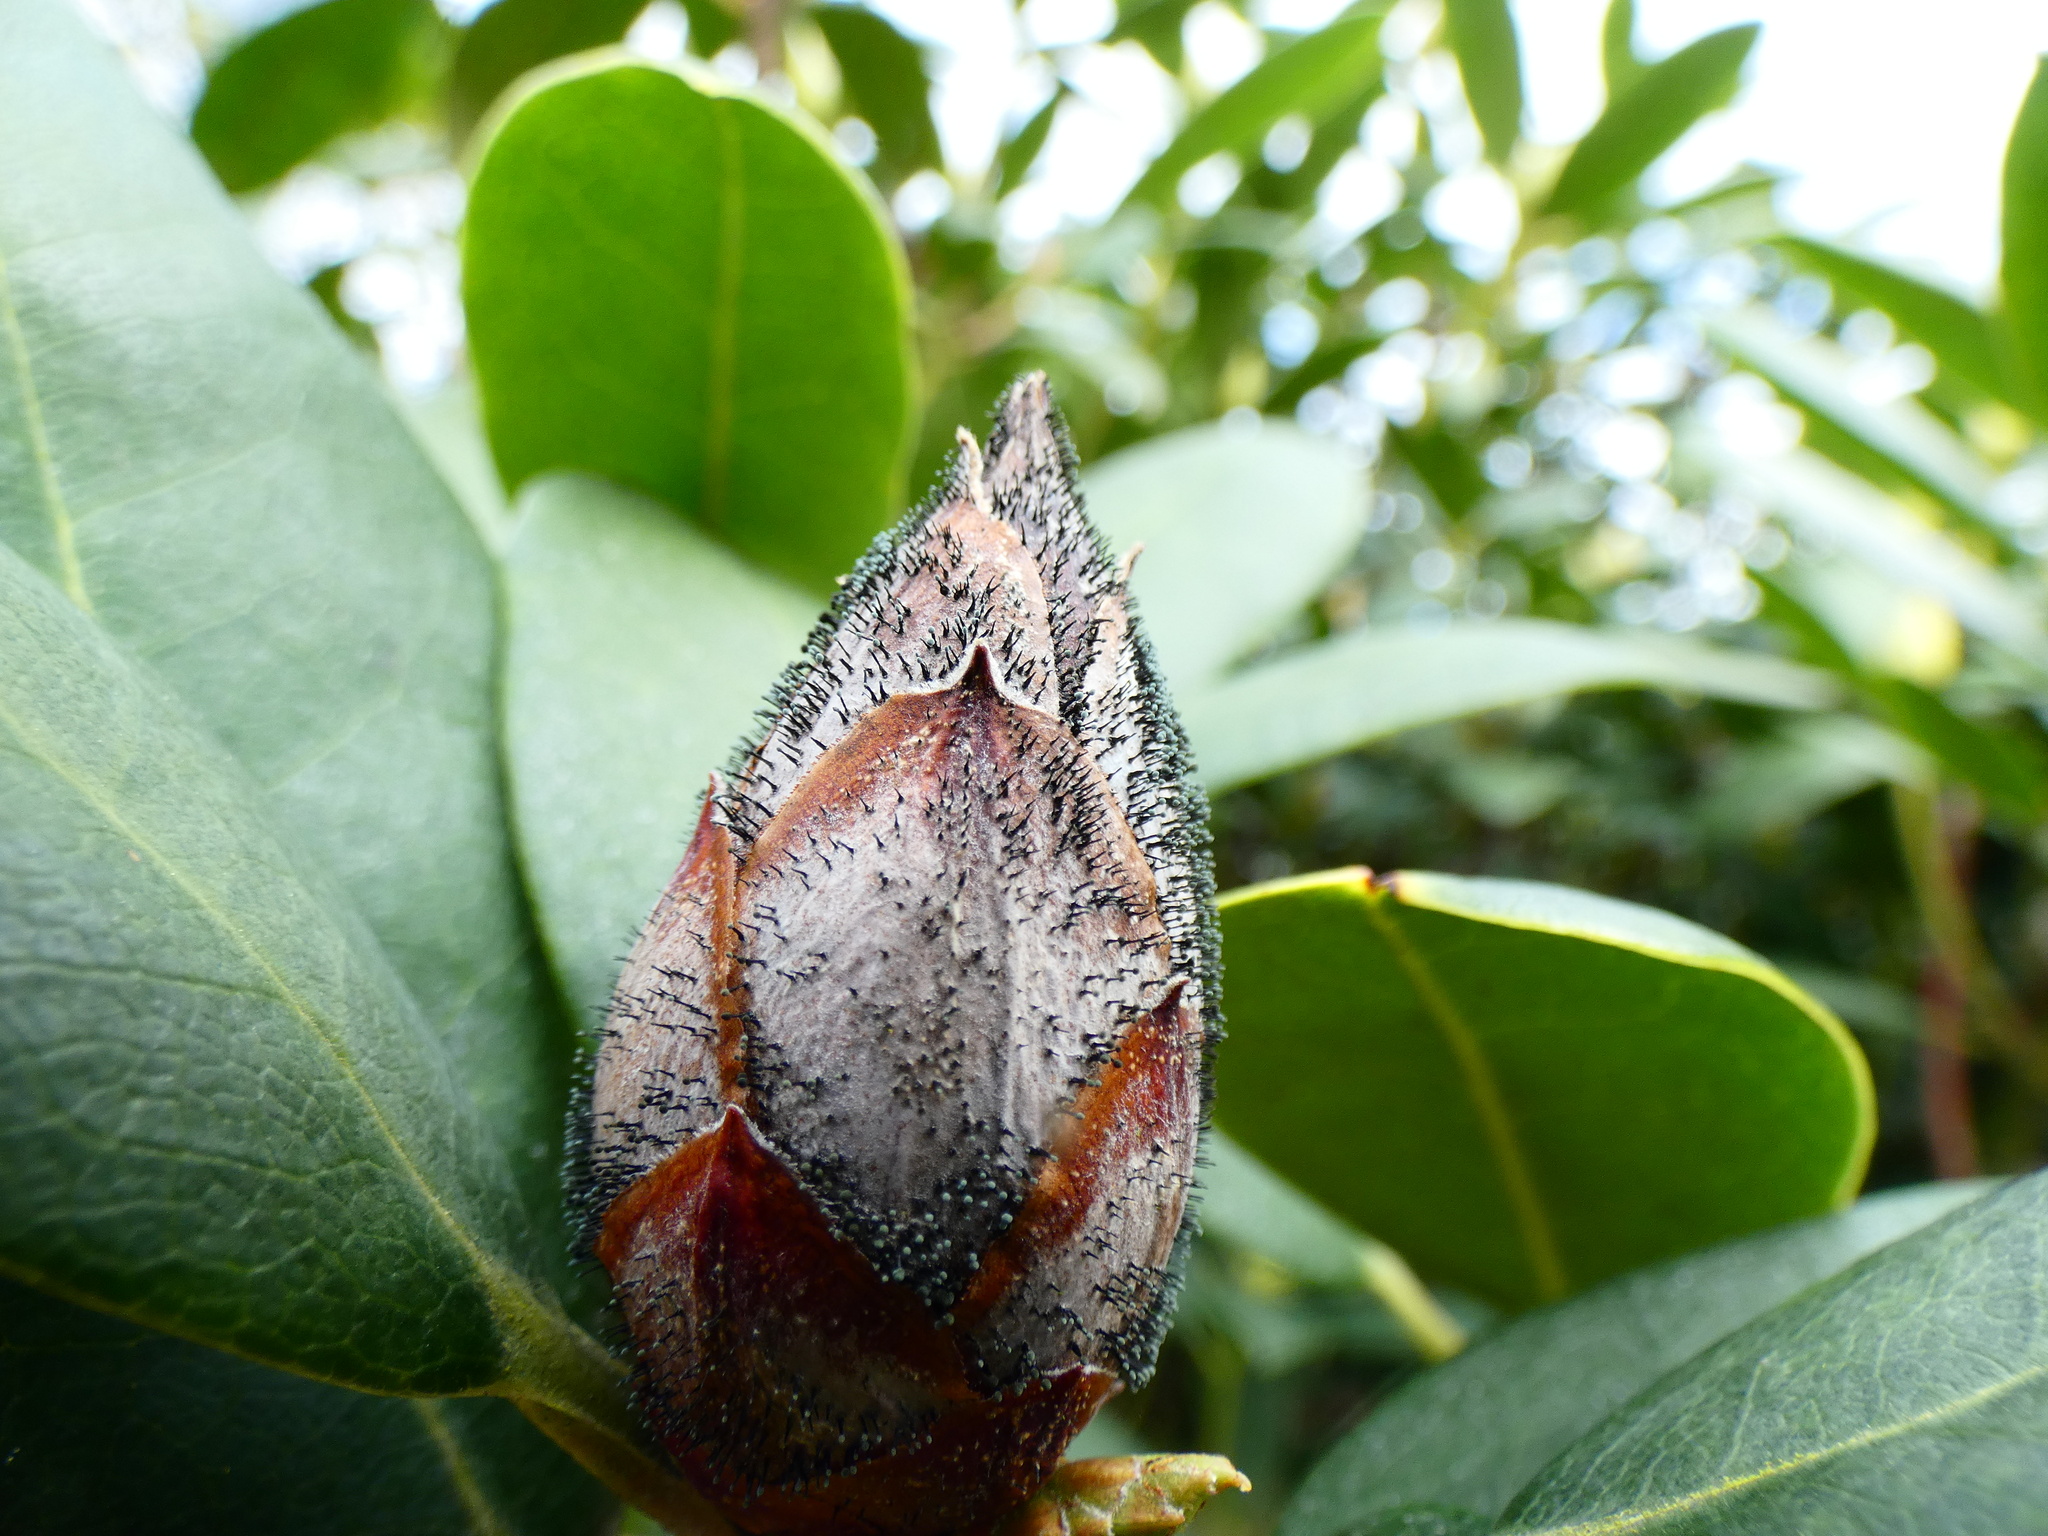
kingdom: Fungi
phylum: Ascomycota
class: Dothideomycetes
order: Pleosporales
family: Melanommataceae
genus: Seifertia
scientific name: Seifertia azaleae
